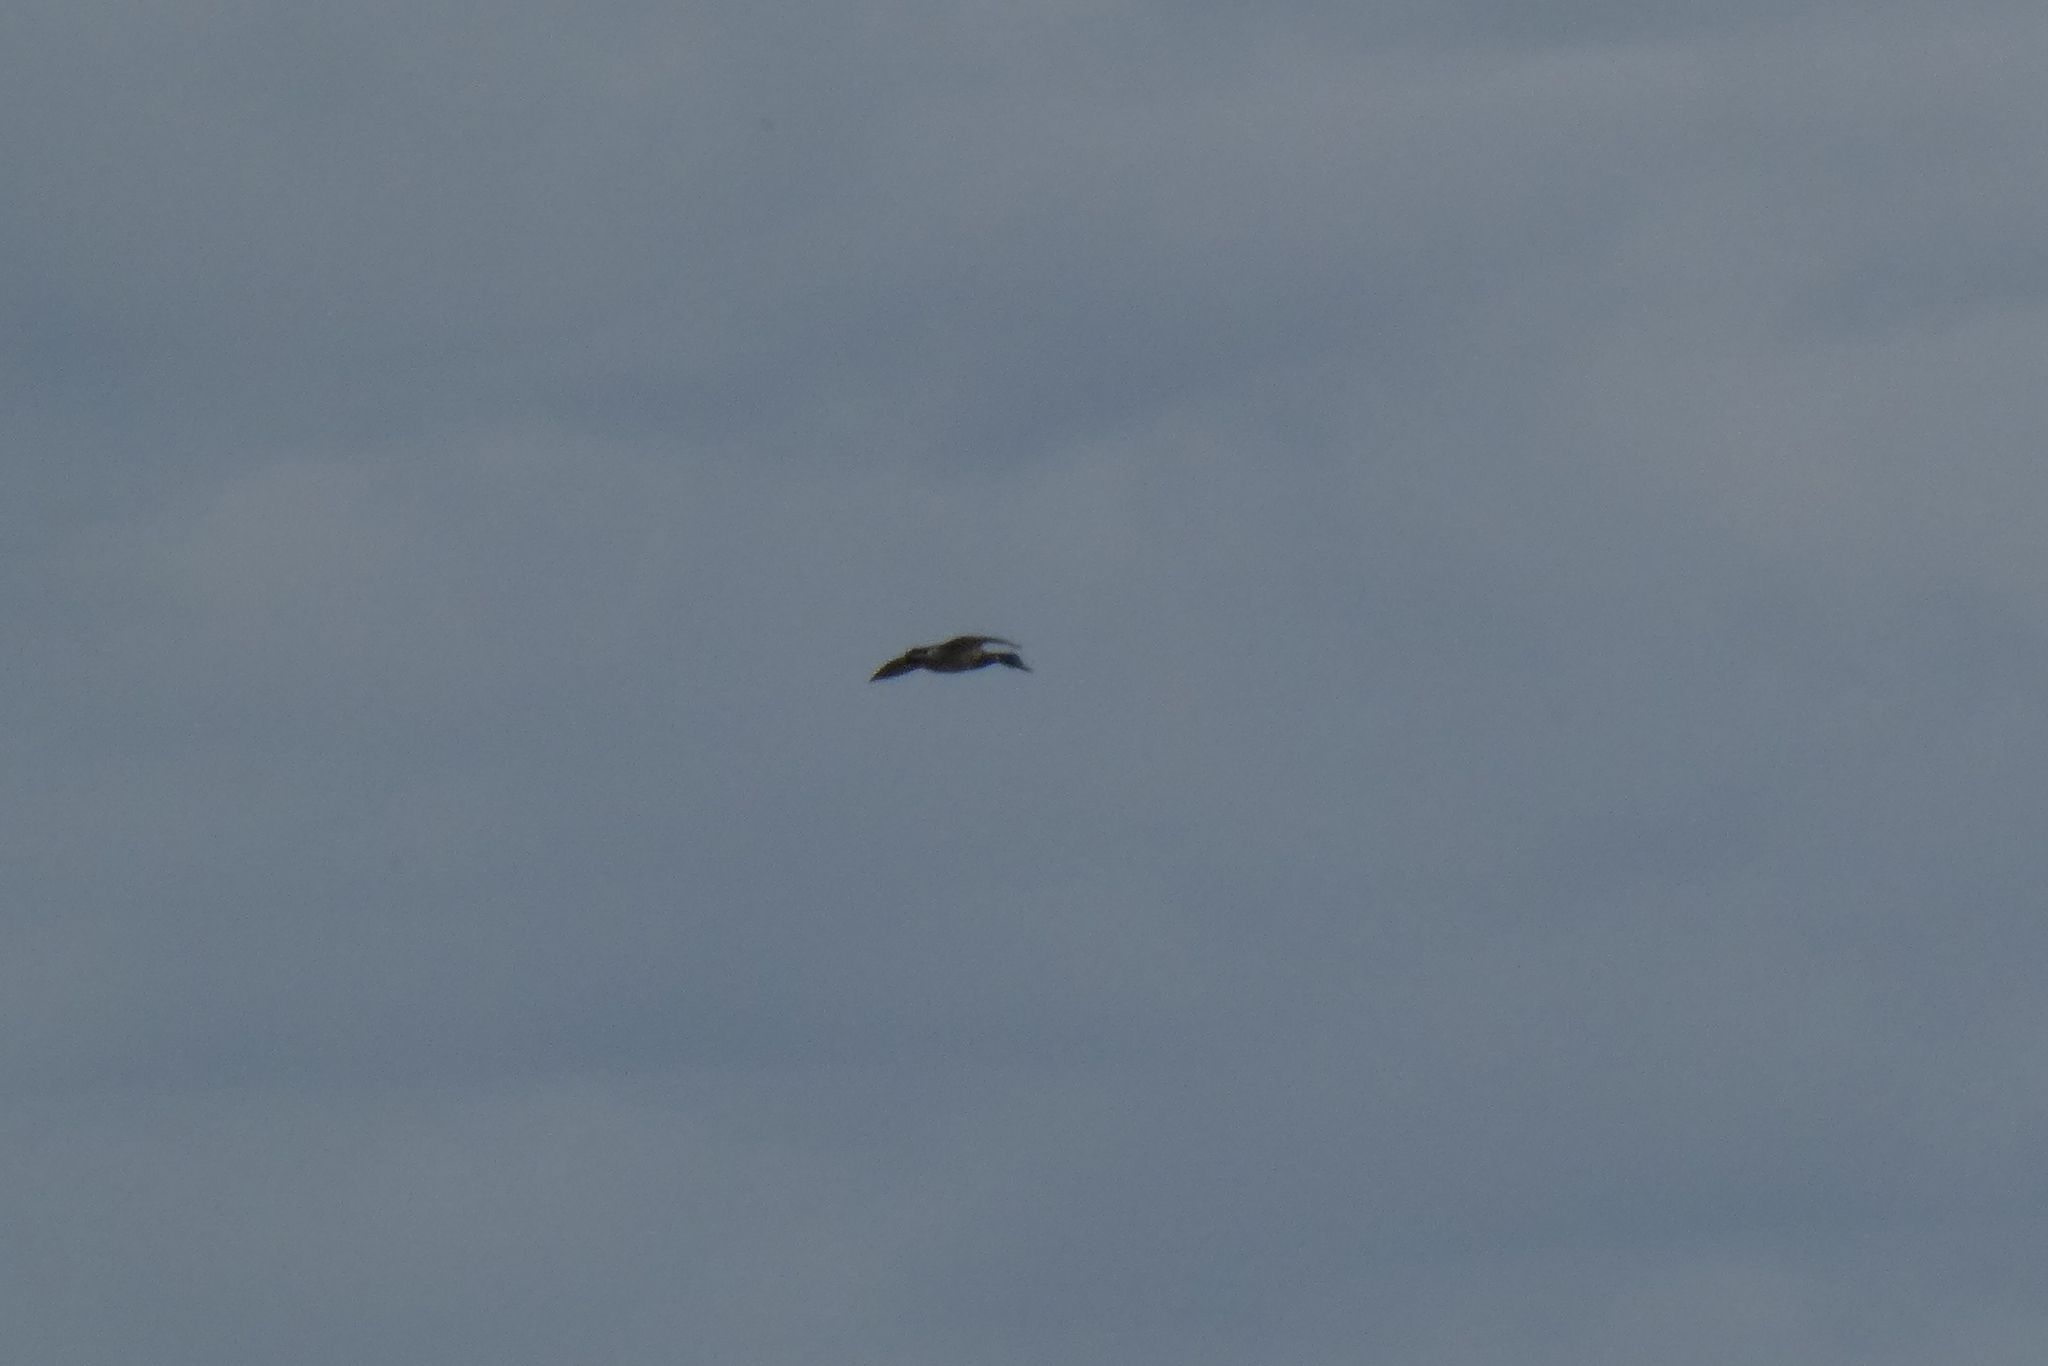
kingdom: Animalia
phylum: Chordata
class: Aves
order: Anseriformes
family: Anatidae
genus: Anas
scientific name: Anas platyrhynchos
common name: Mallard
